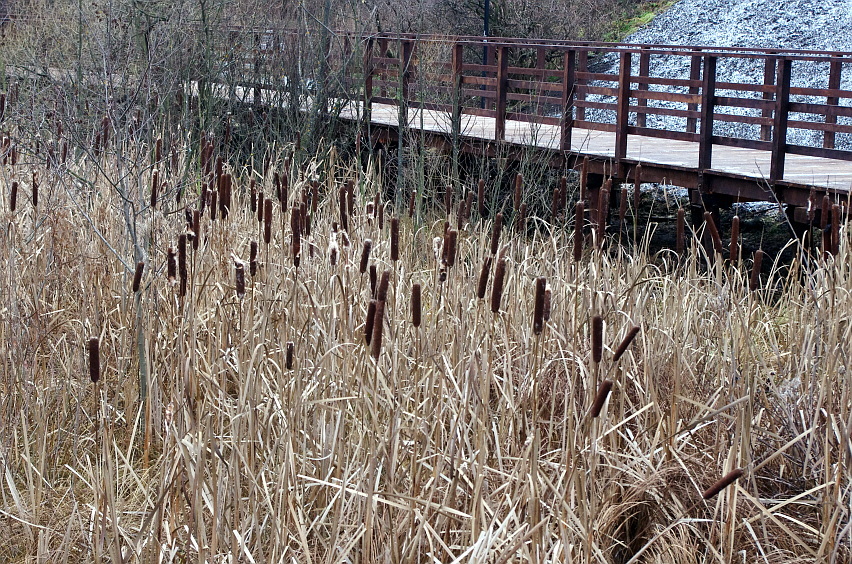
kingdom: Plantae
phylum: Tracheophyta
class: Liliopsida
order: Poales
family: Typhaceae
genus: Typha
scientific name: Typha latifolia
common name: Broadleaf cattail
